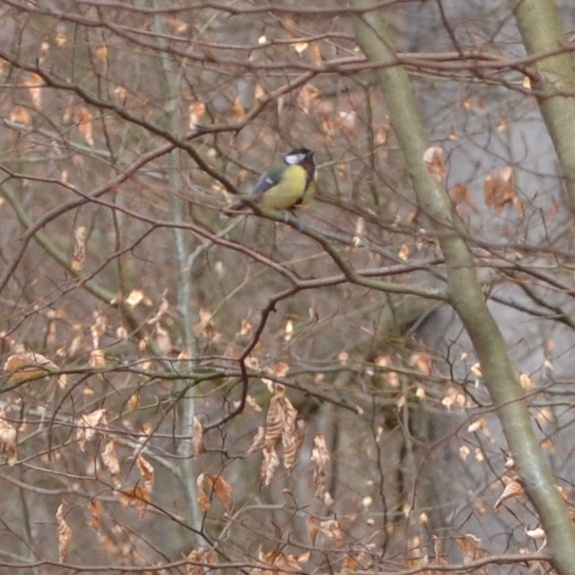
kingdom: Animalia
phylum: Chordata
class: Aves
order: Passeriformes
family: Paridae
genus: Parus
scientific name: Parus major
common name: Great tit
